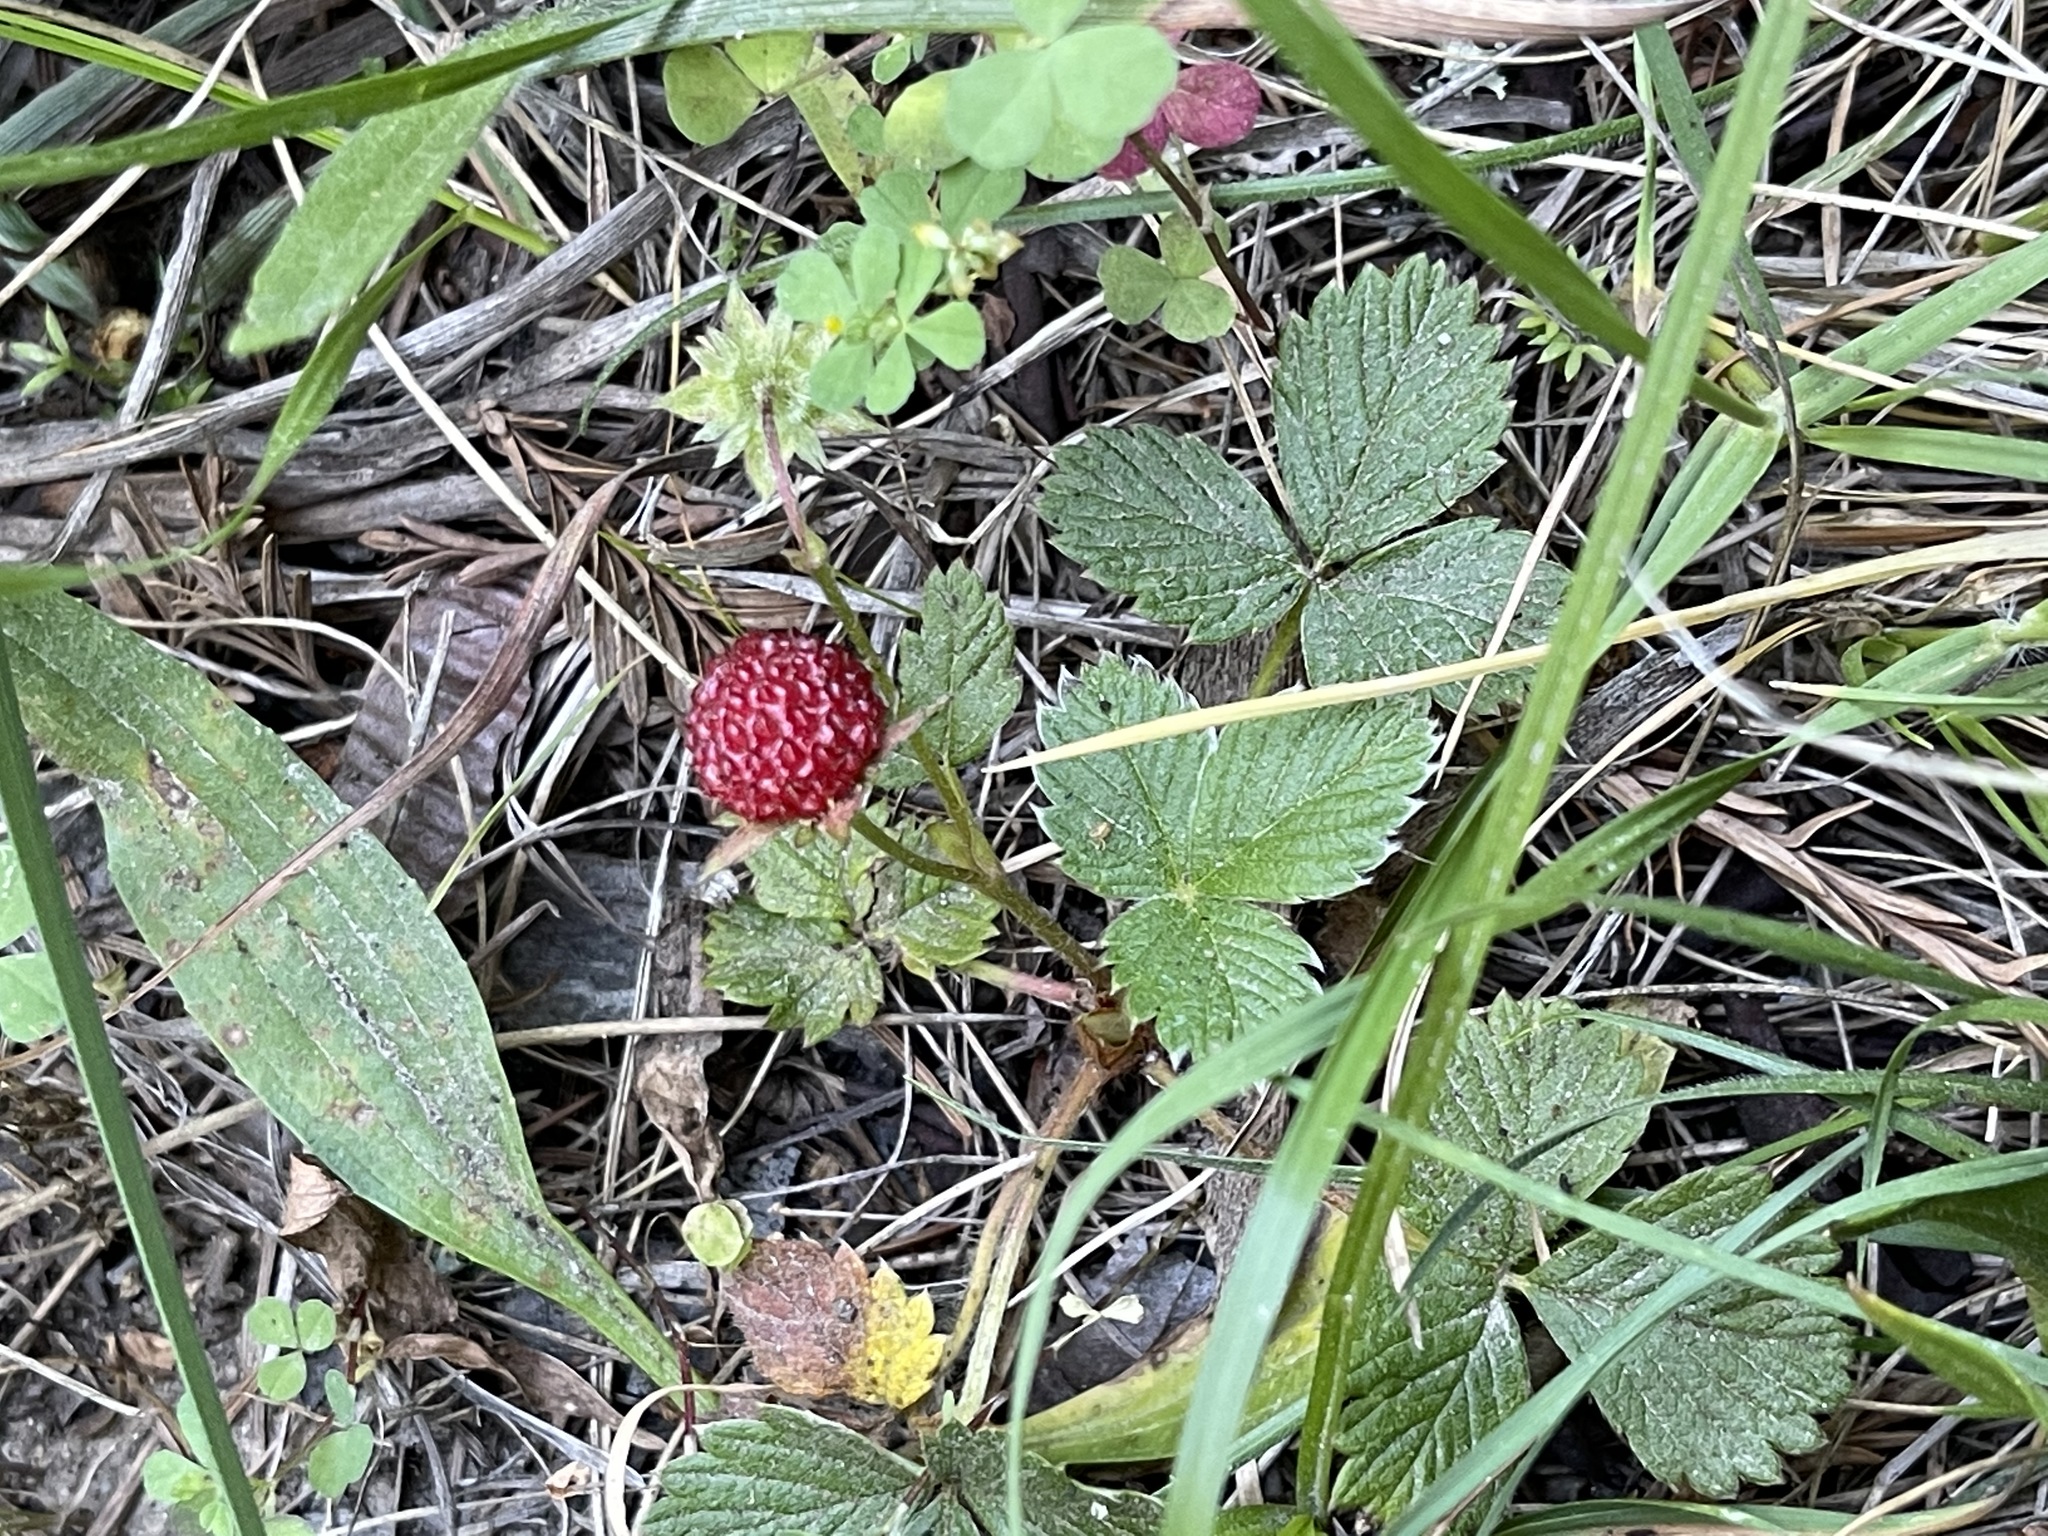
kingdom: Plantae
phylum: Tracheophyta
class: Magnoliopsida
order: Rosales
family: Rosaceae
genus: Fragaria
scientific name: Fragaria vesca
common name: Wild strawberry
